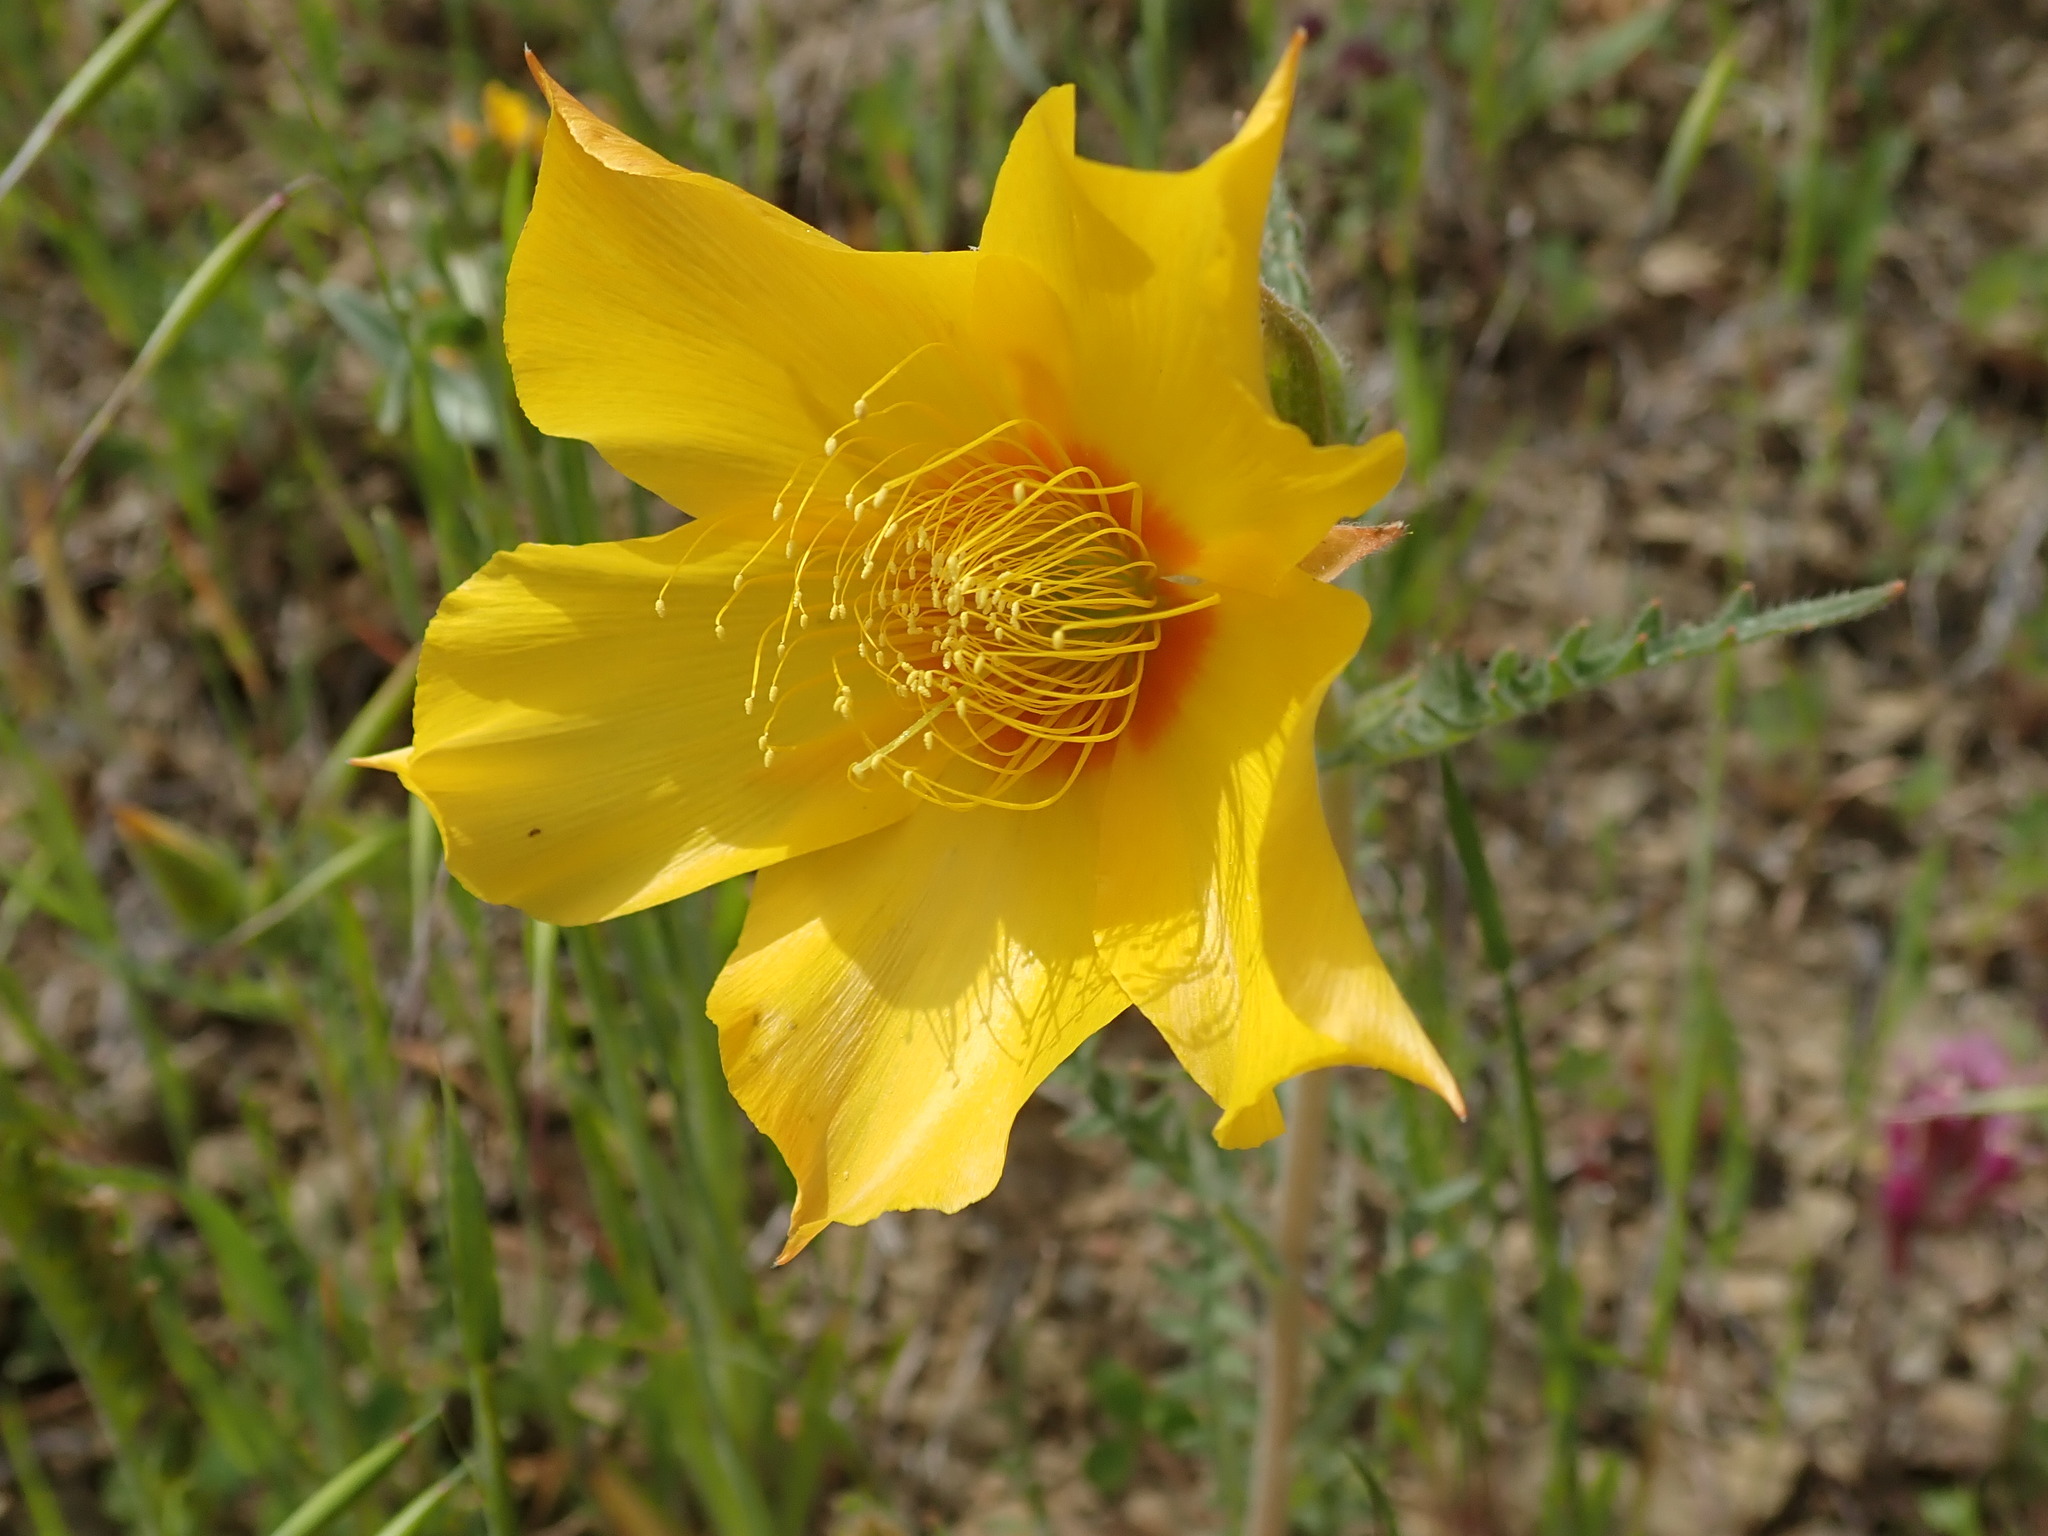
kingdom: Plantae
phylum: Tracheophyta
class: Magnoliopsida
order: Cornales
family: Loasaceae
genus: Mentzelia
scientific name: Mentzelia lindleyi
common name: Golden bartonia
